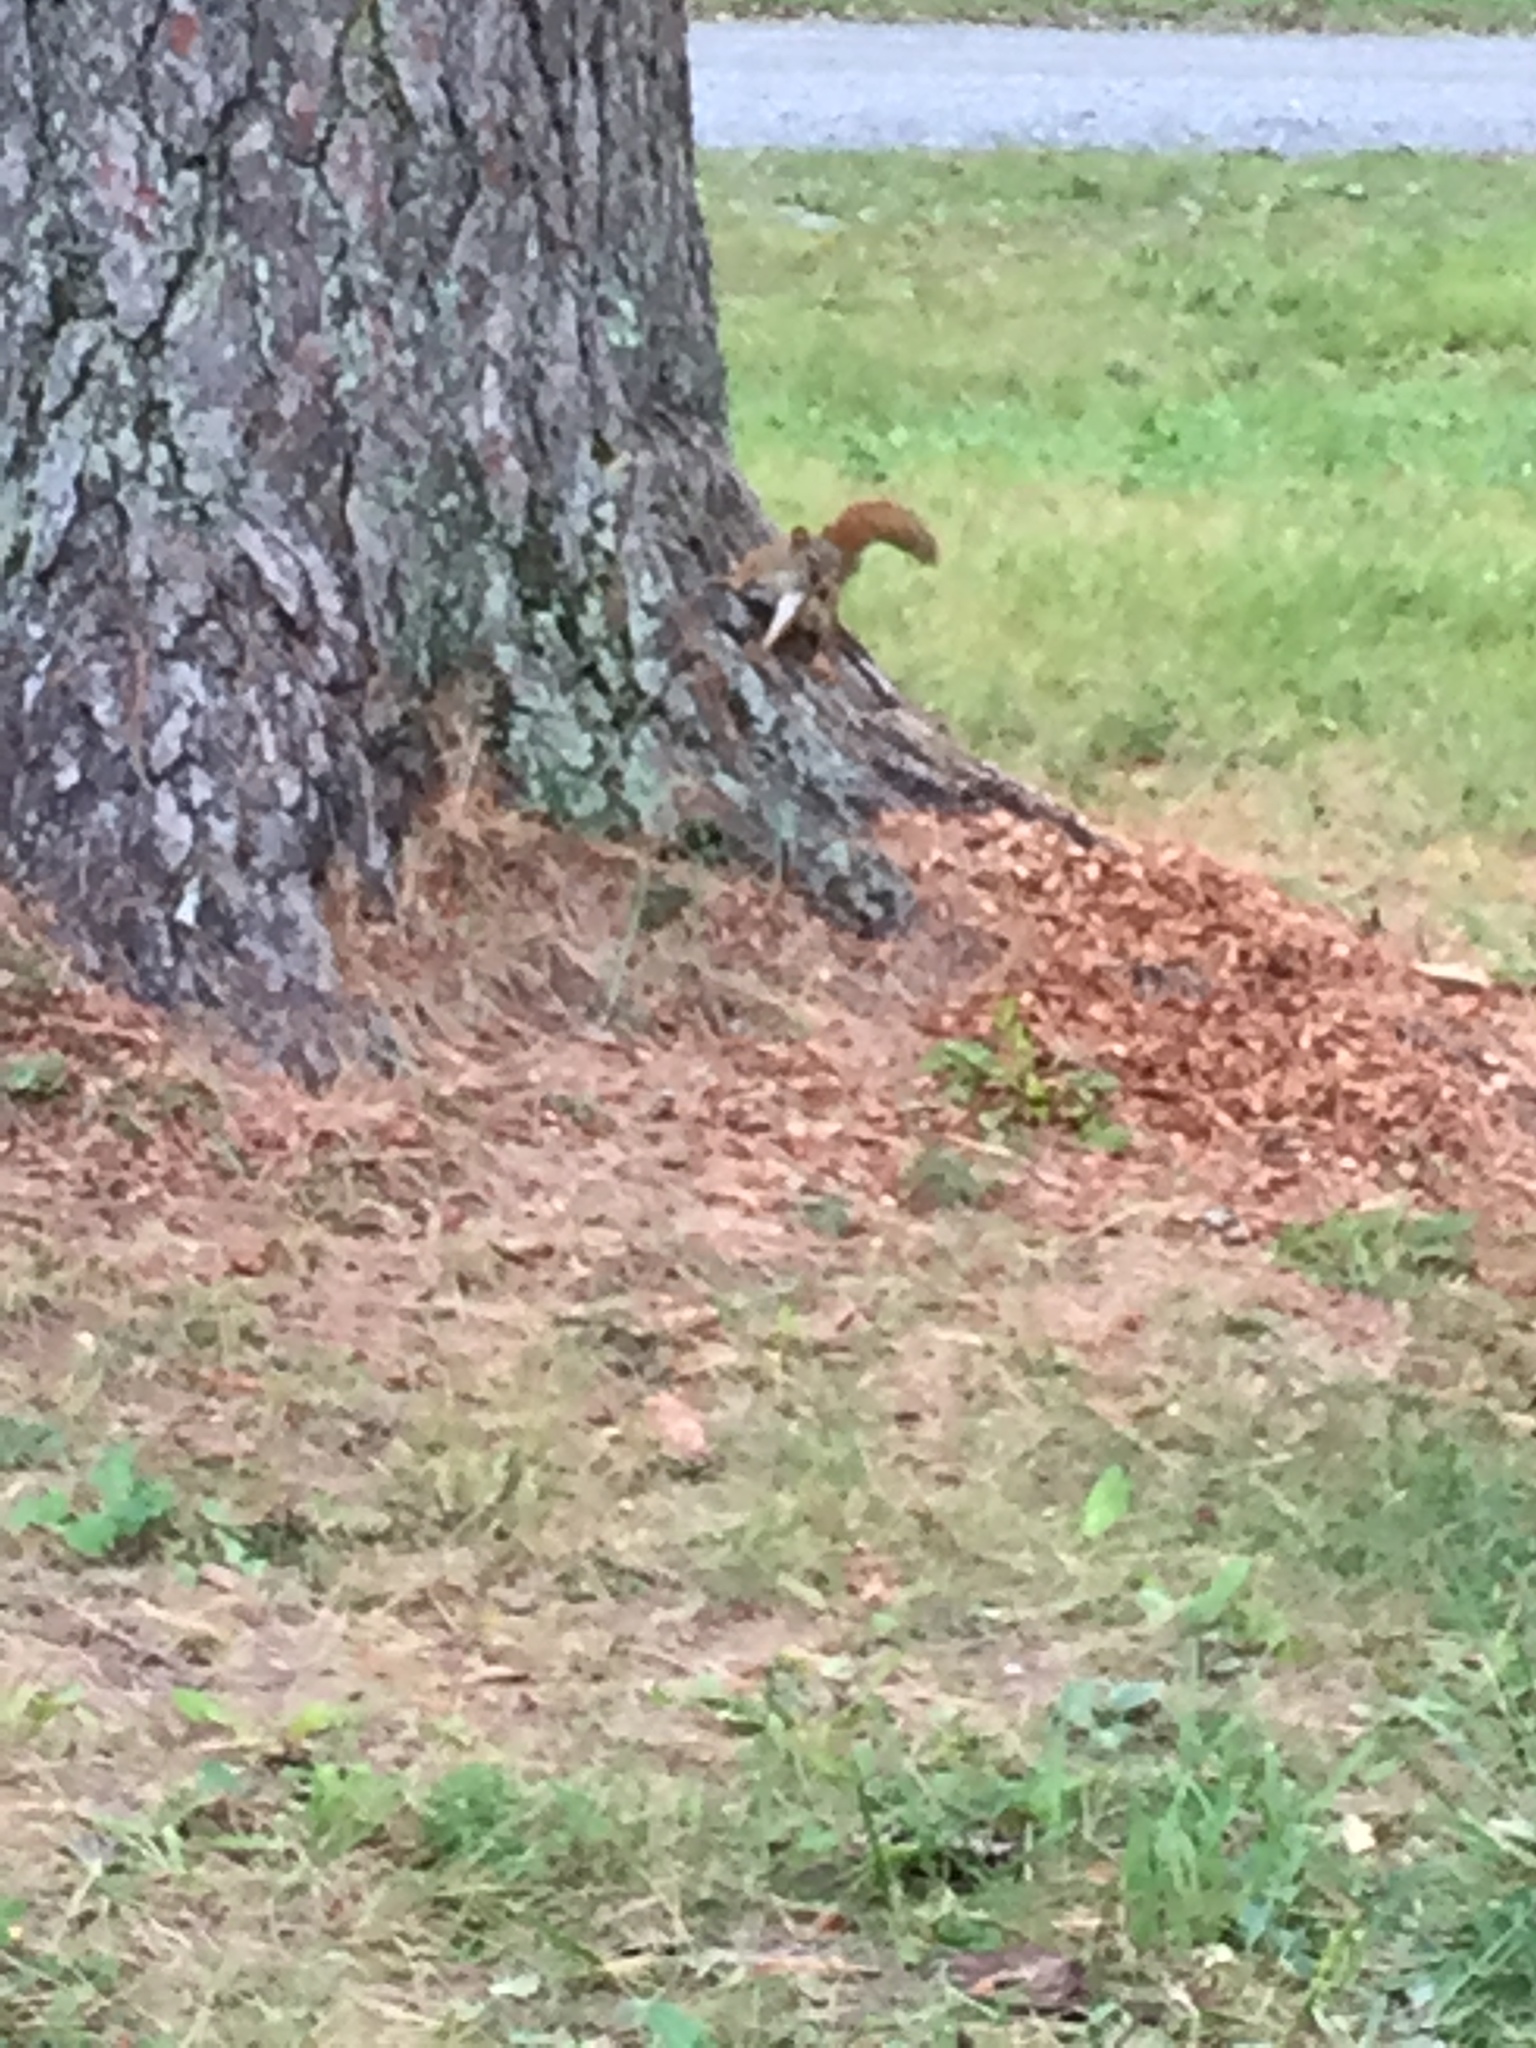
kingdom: Animalia
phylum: Chordata
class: Mammalia
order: Rodentia
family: Sciuridae
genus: Tamiasciurus
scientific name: Tamiasciurus hudsonicus
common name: Red squirrel
